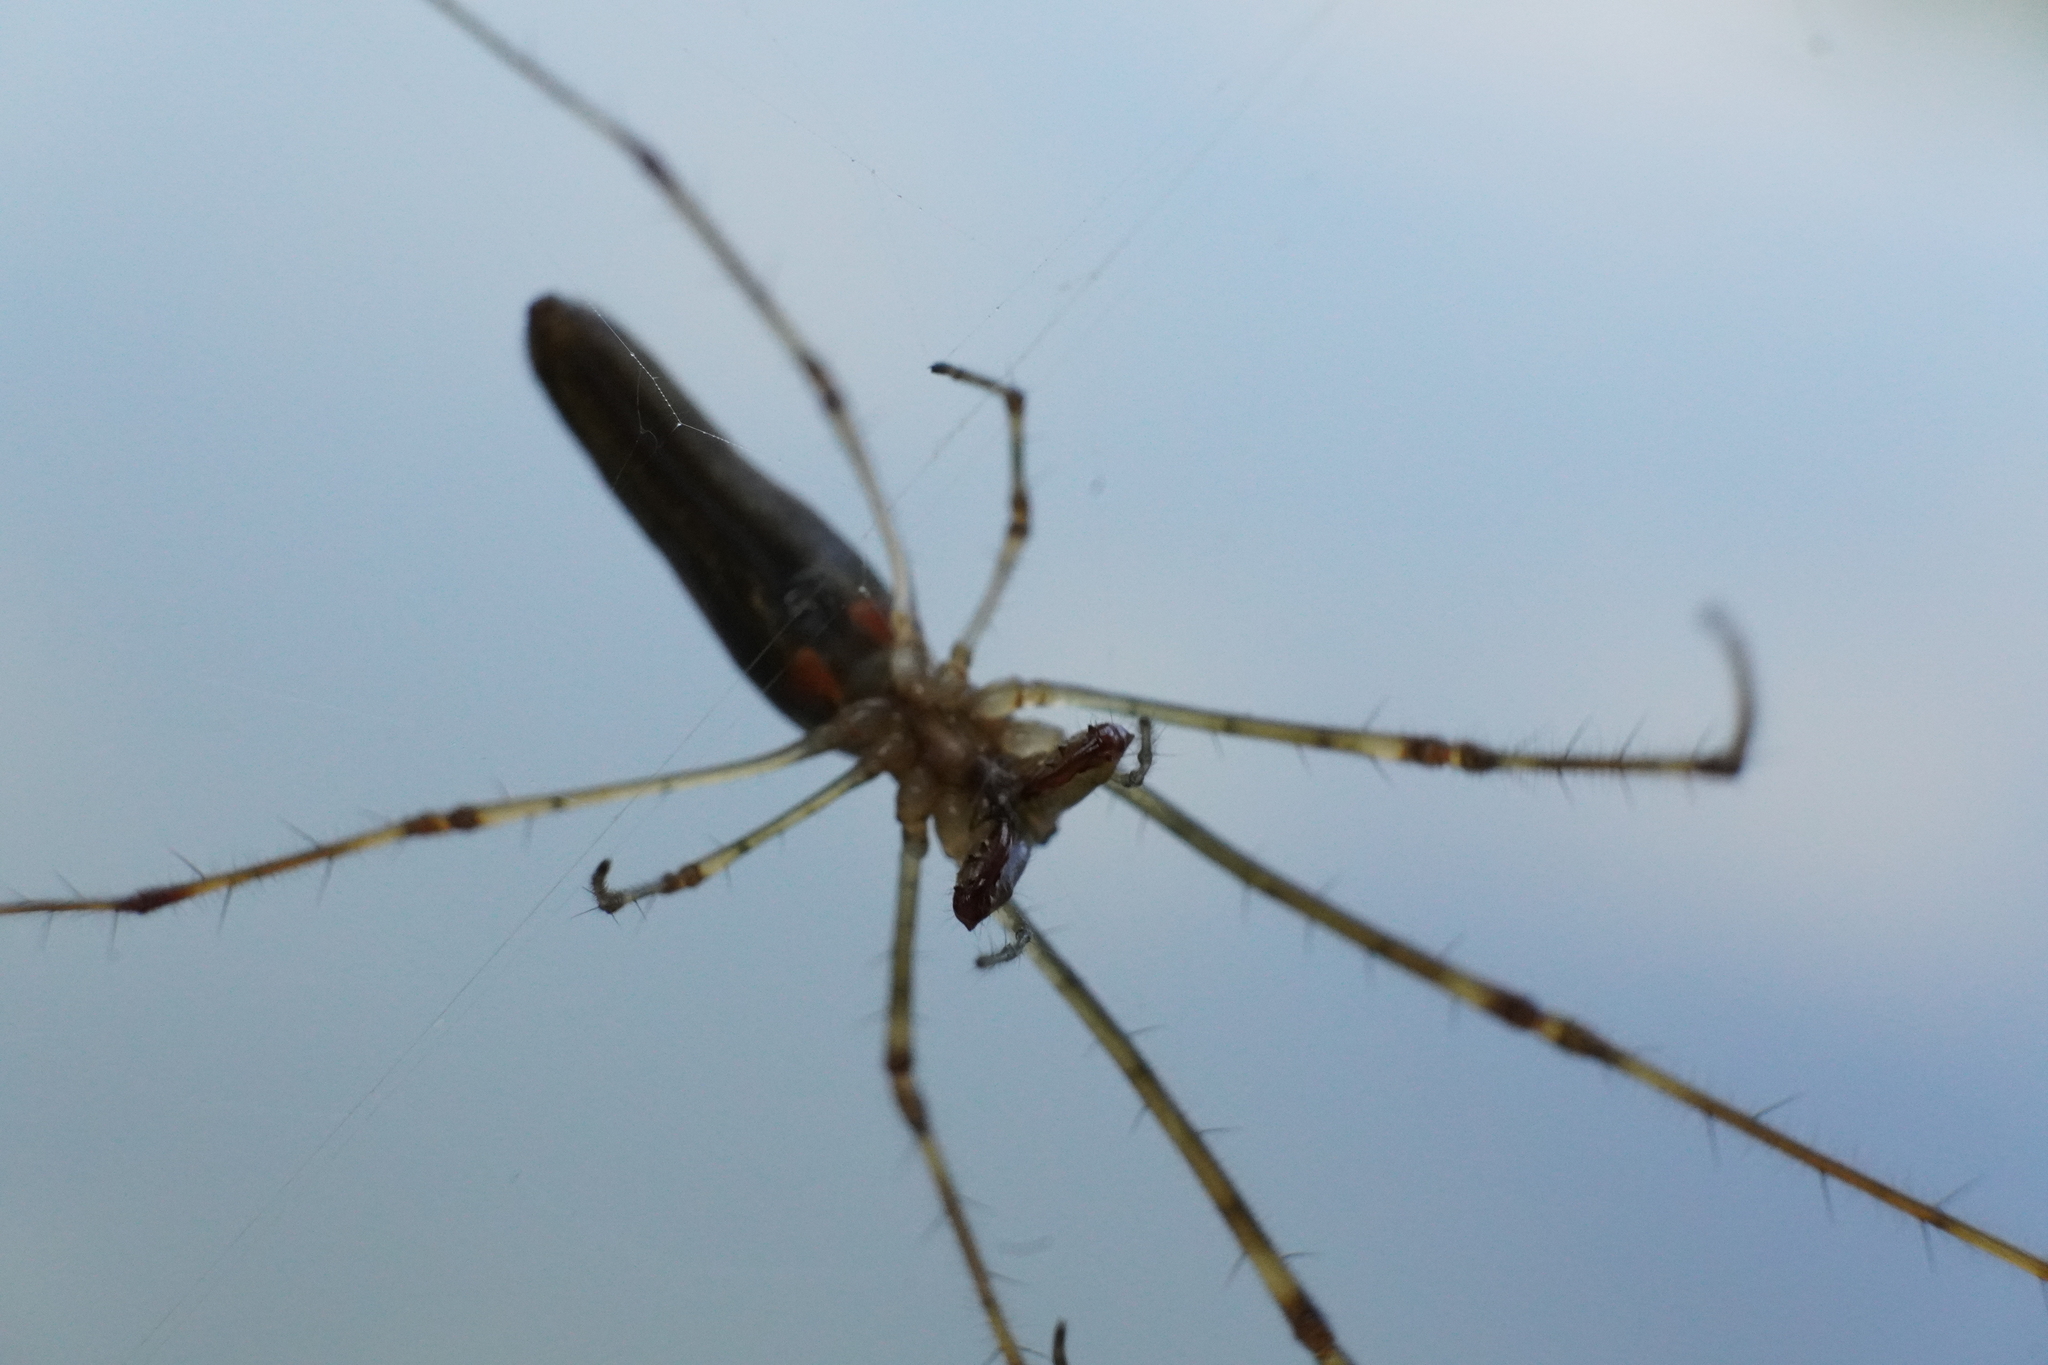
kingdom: Animalia
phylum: Arthropoda
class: Arachnida
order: Araneae
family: Tetragnathidae
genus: Tetragnatha
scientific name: Tetragnatha elongata
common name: Longjawed orb weavers
